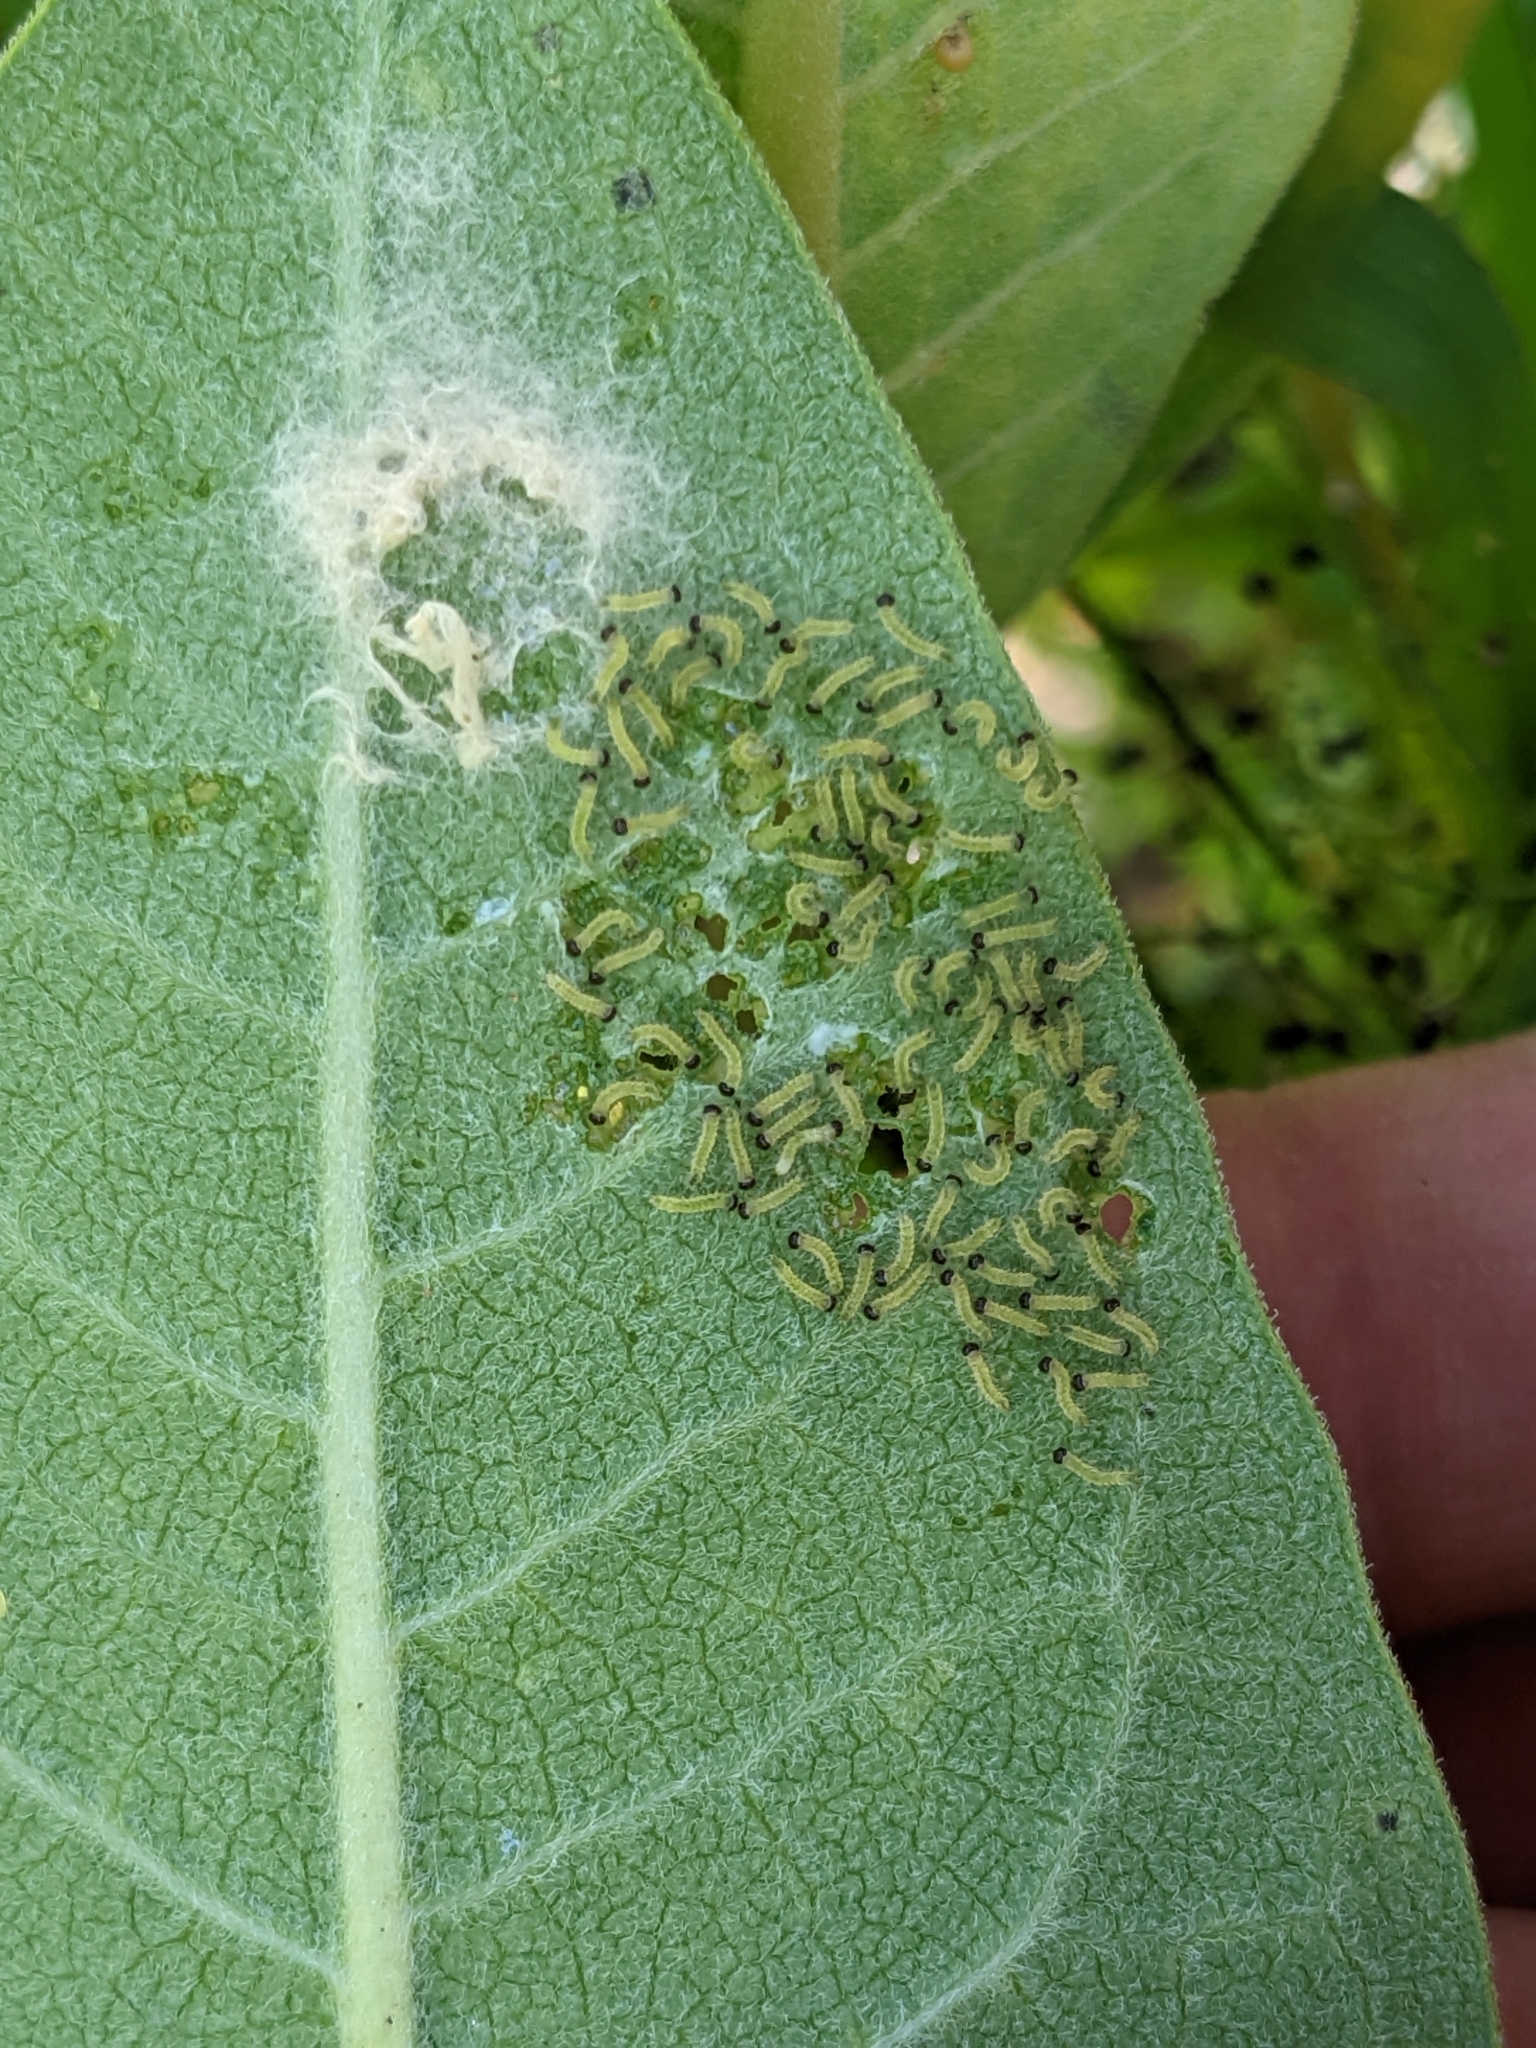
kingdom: Animalia
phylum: Arthropoda
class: Insecta
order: Lepidoptera
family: Erebidae
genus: Euchaetes
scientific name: Euchaetes egle
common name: Milkweed tussock moth
